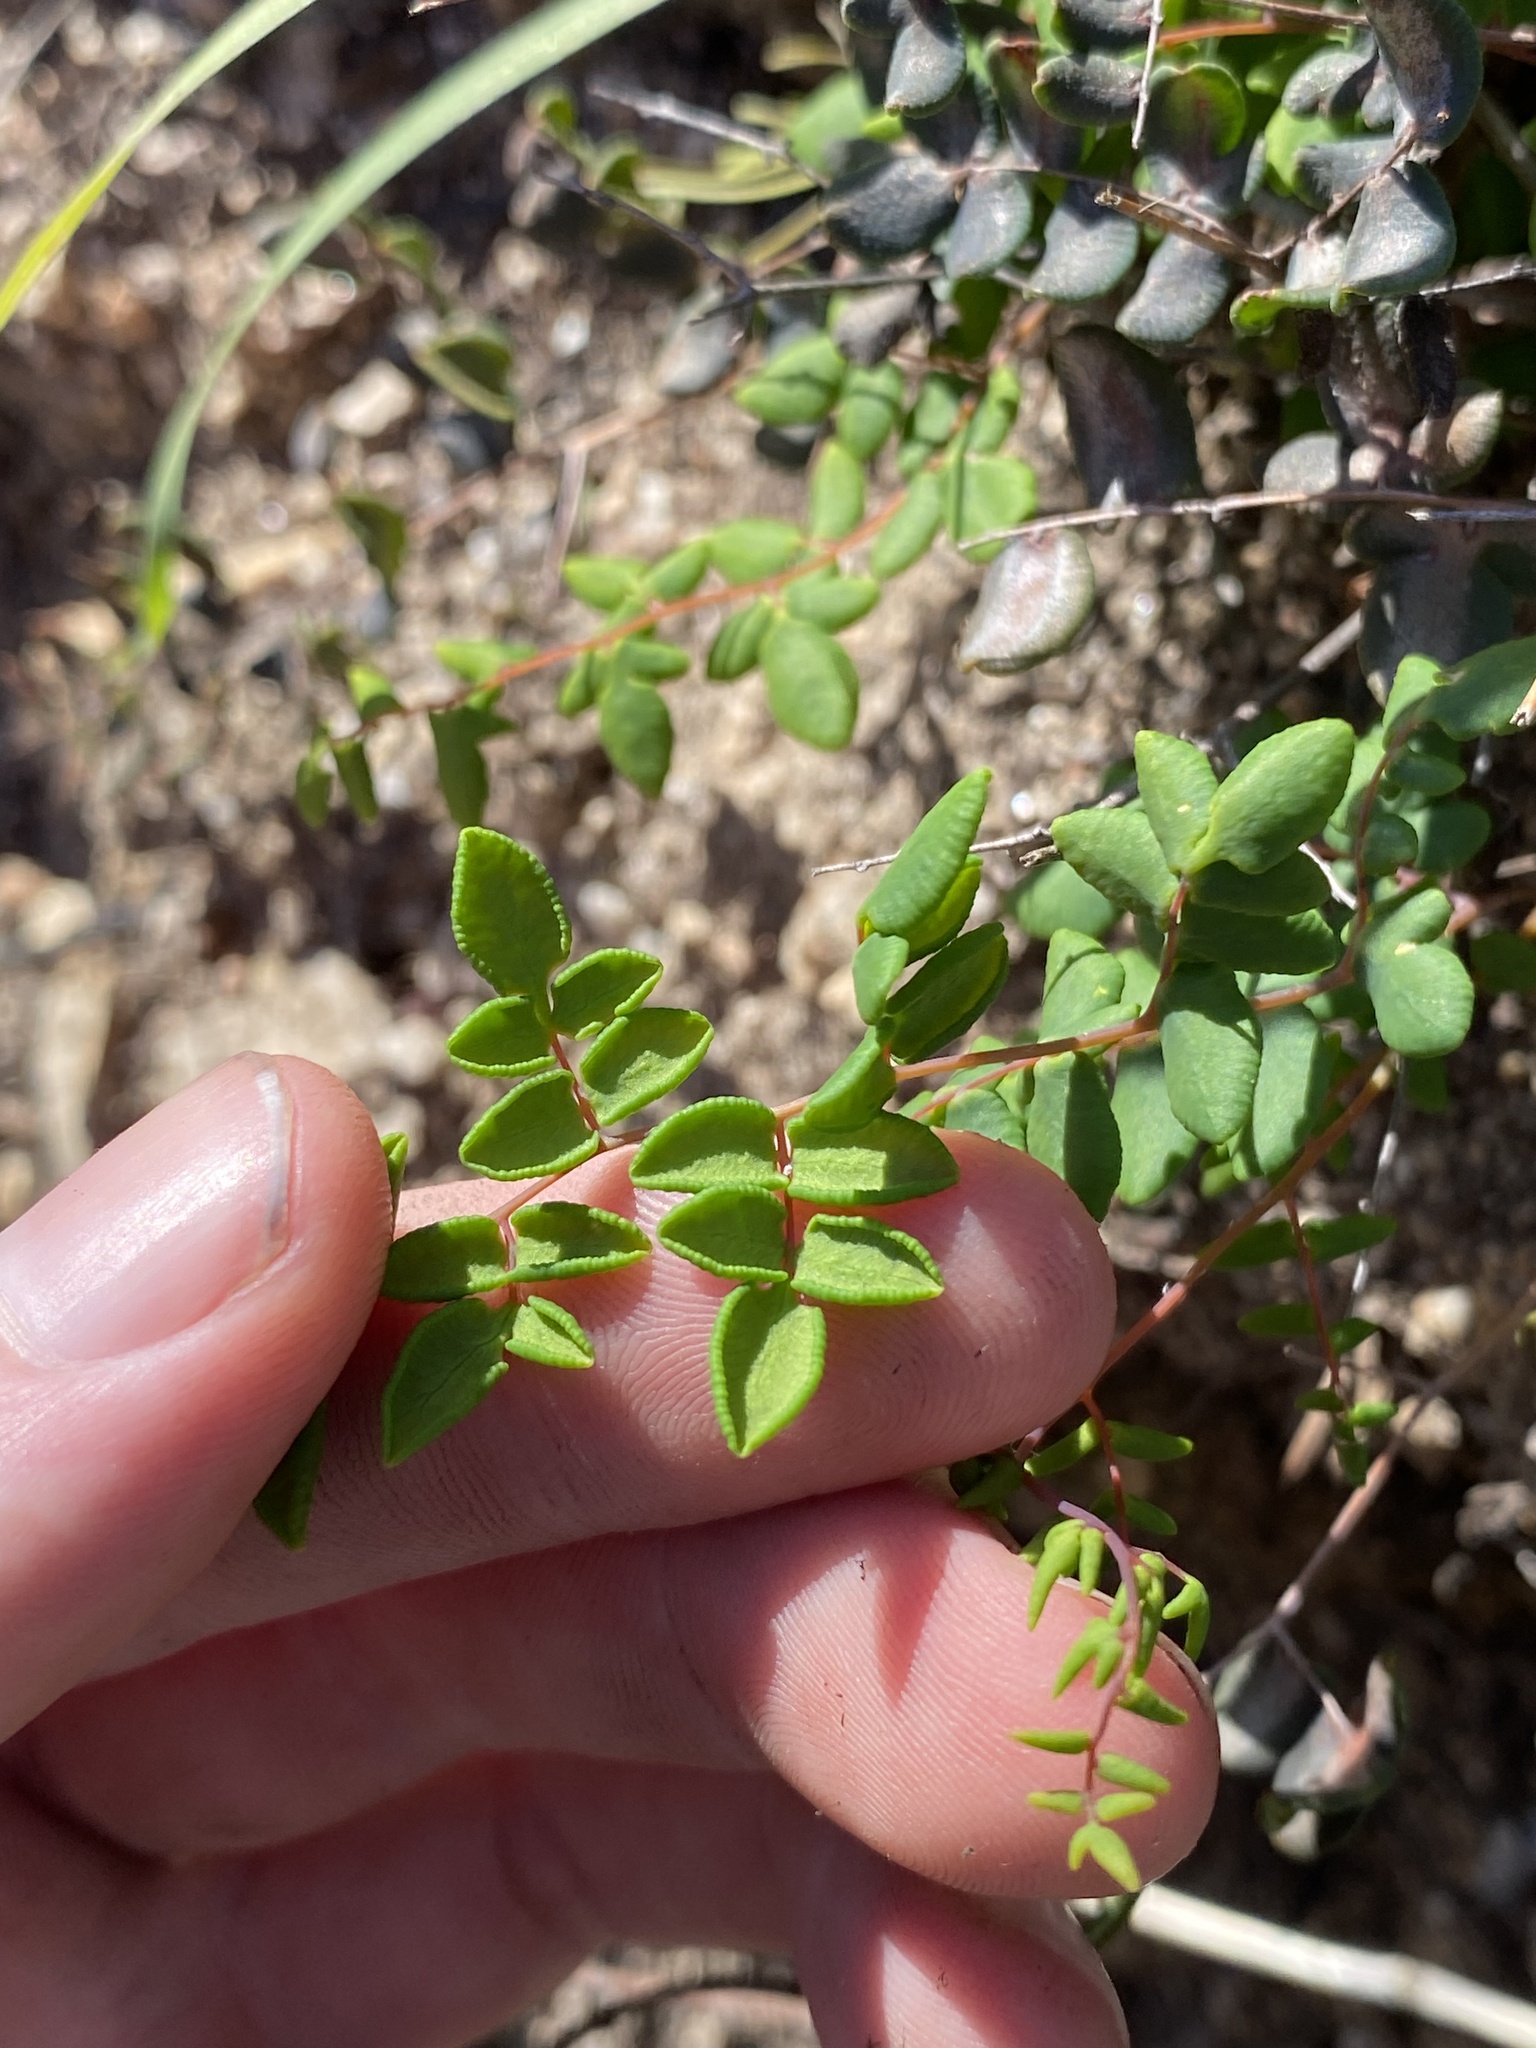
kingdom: Plantae
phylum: Tracheophyta
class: Polypodiopsida
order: Polypodiales
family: Pteridaceae
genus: Pellaea
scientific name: Pellaea andromedifolia
